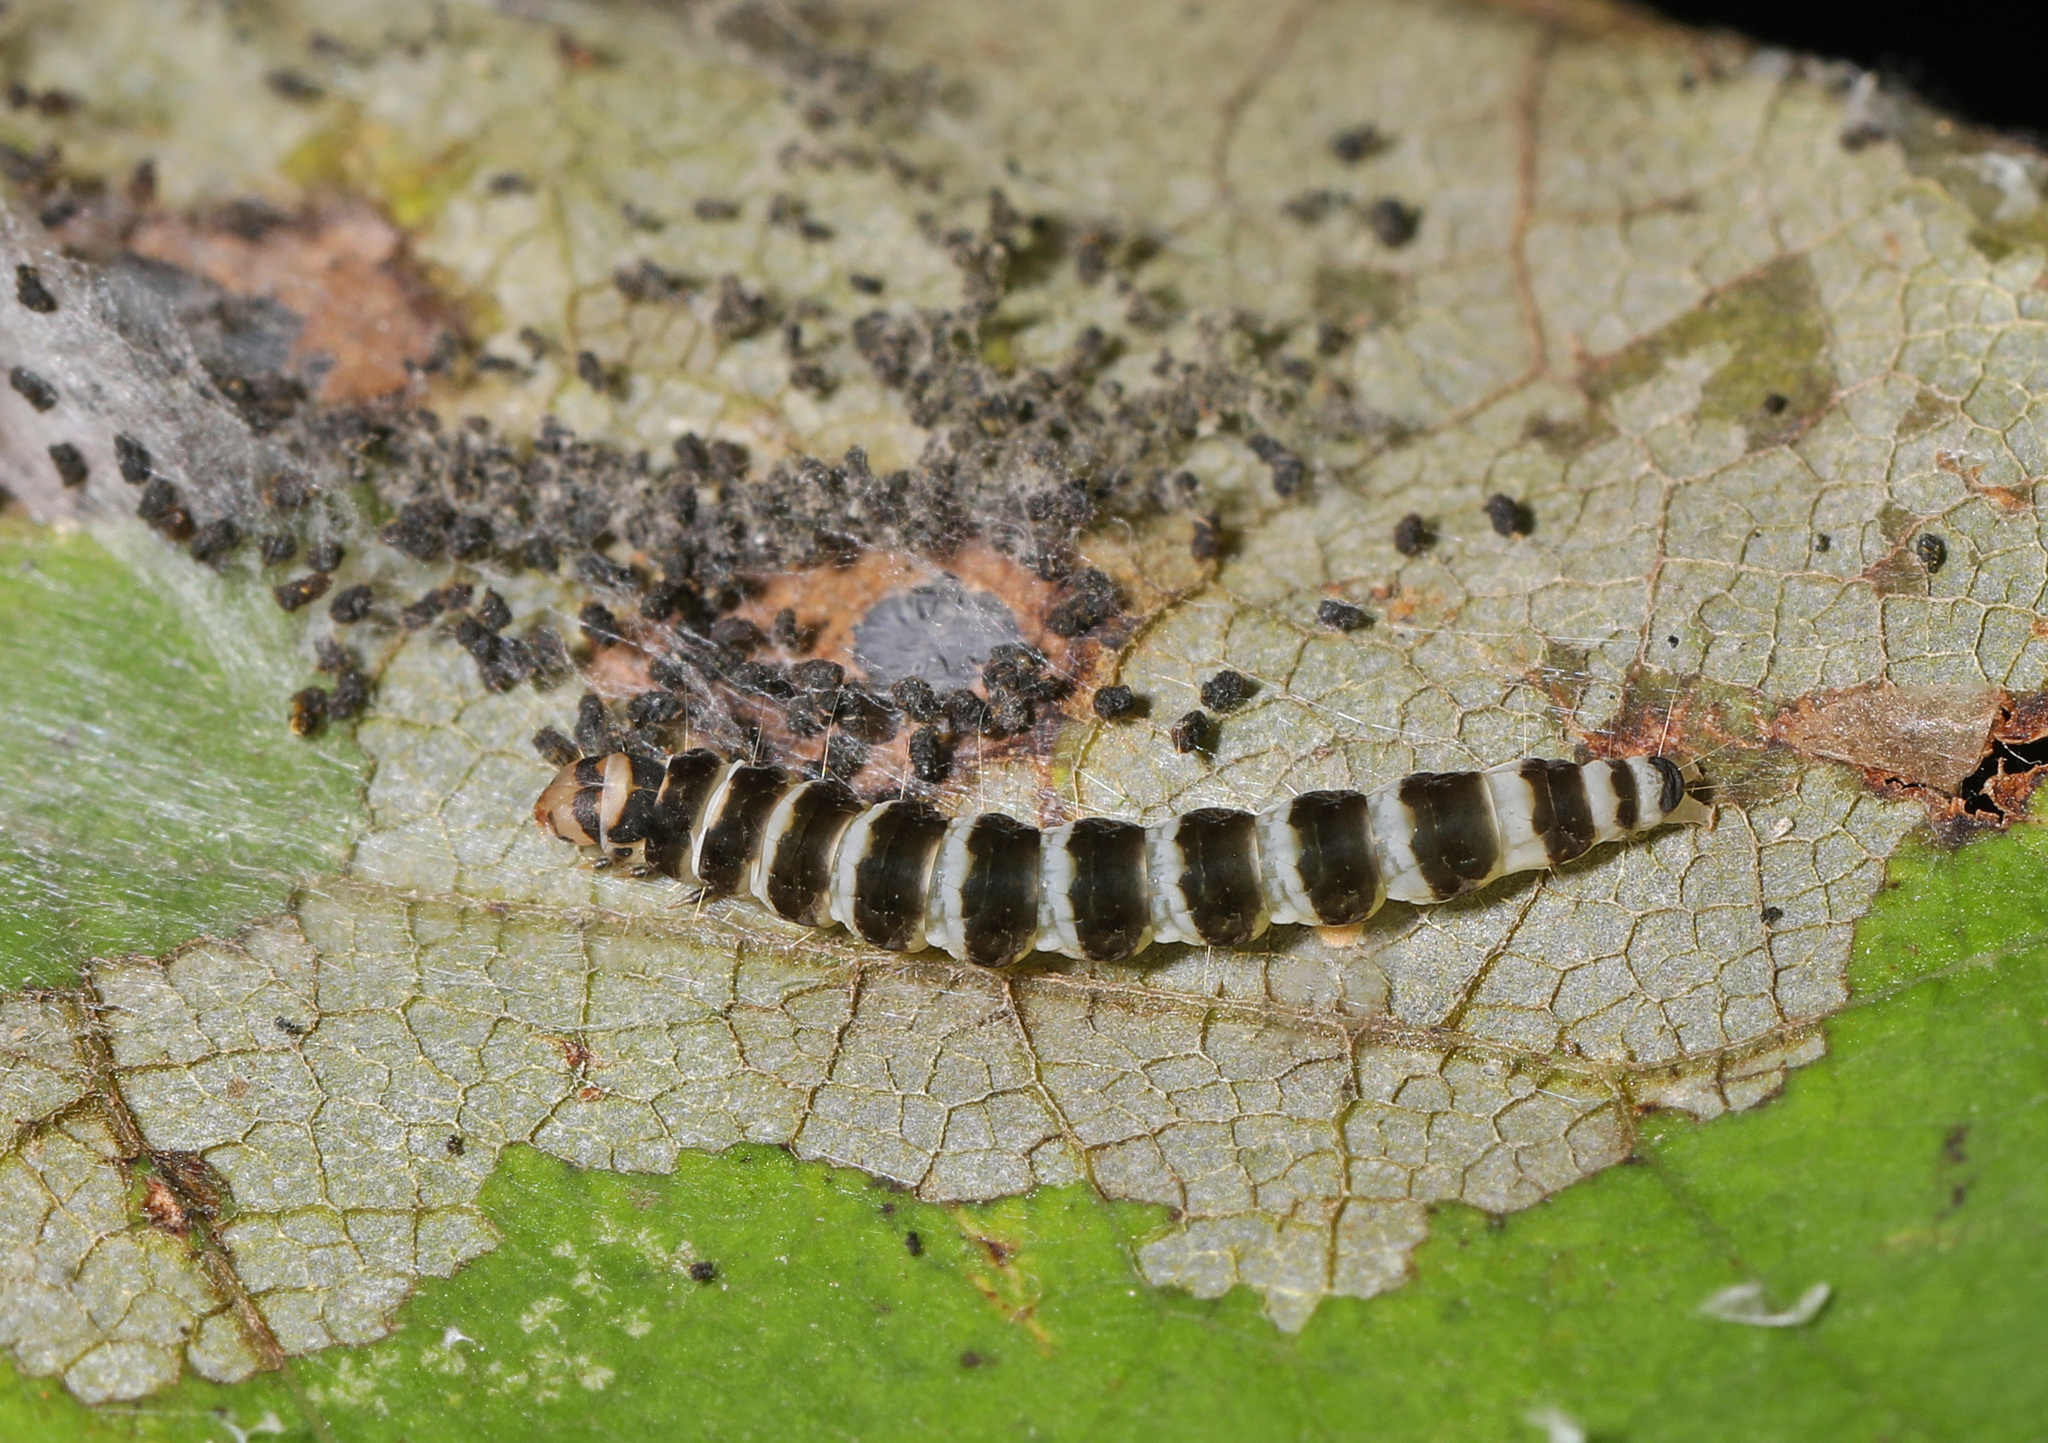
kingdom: Animalia
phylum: Arthropoda
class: Insecta
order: Lepidoptera
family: Gelechiidae
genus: Fascista
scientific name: Fascista cercerisella
